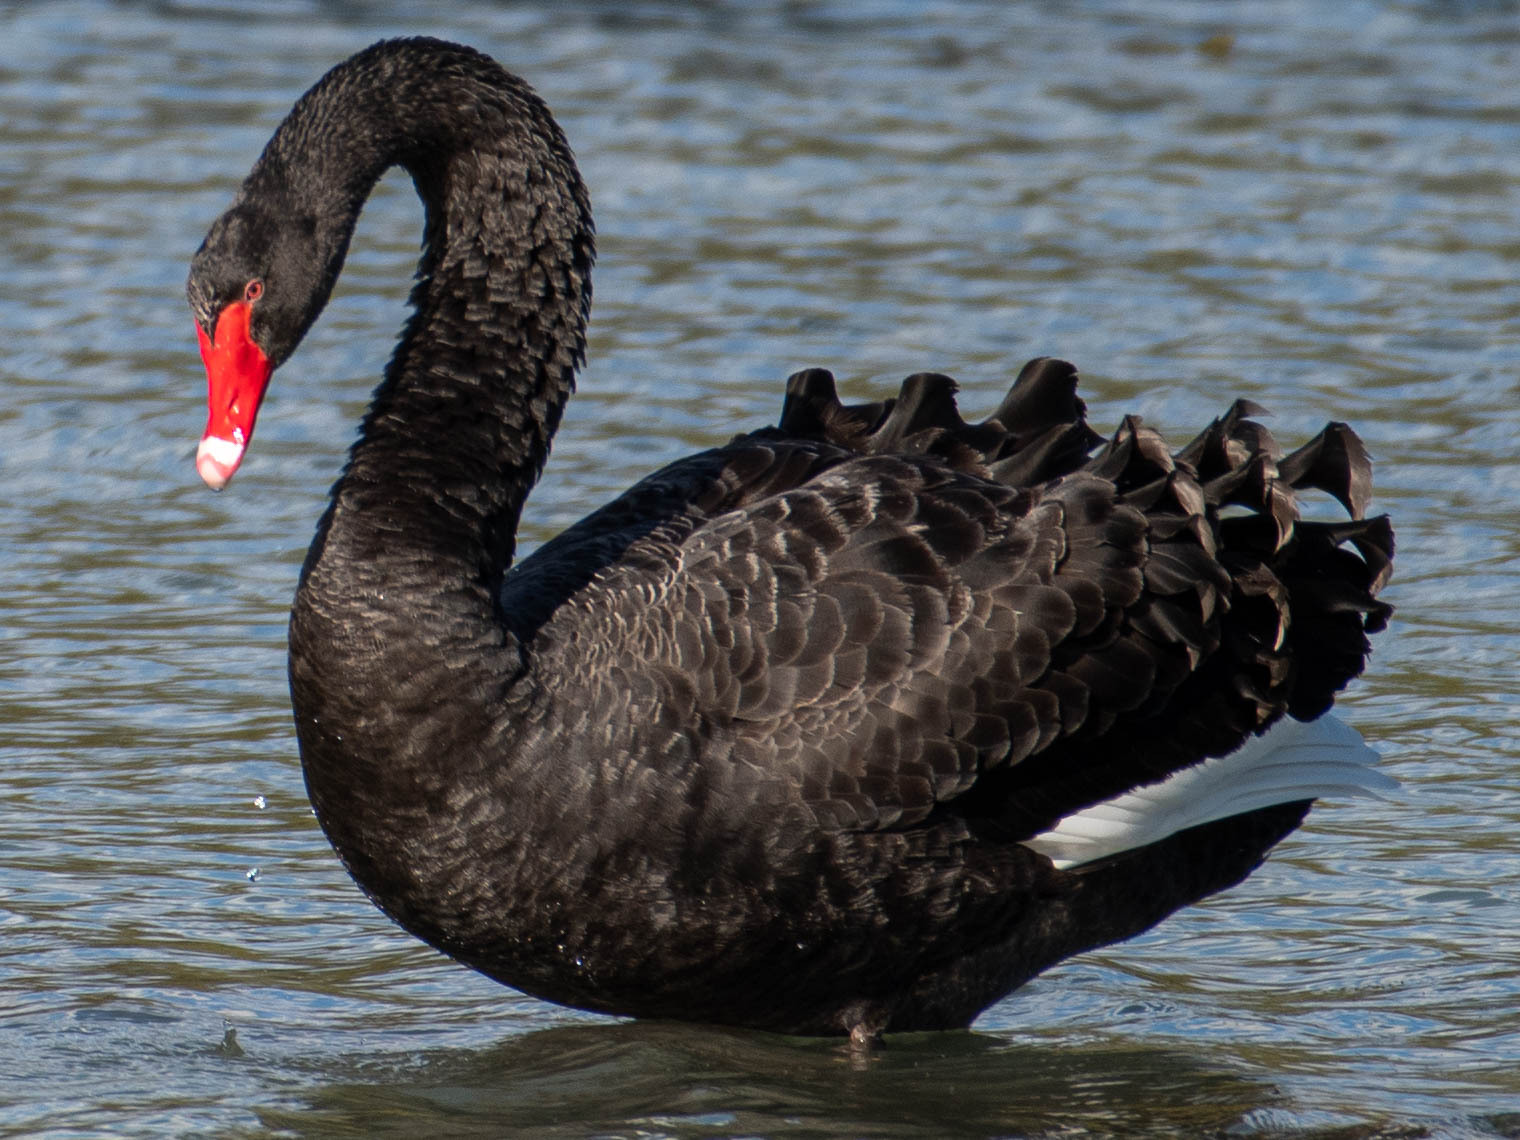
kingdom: Animalia
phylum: Chordata
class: Aves
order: Anseriformes
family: Anatidae
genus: Cygnus
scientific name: Cygnus atratus
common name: Black swan
